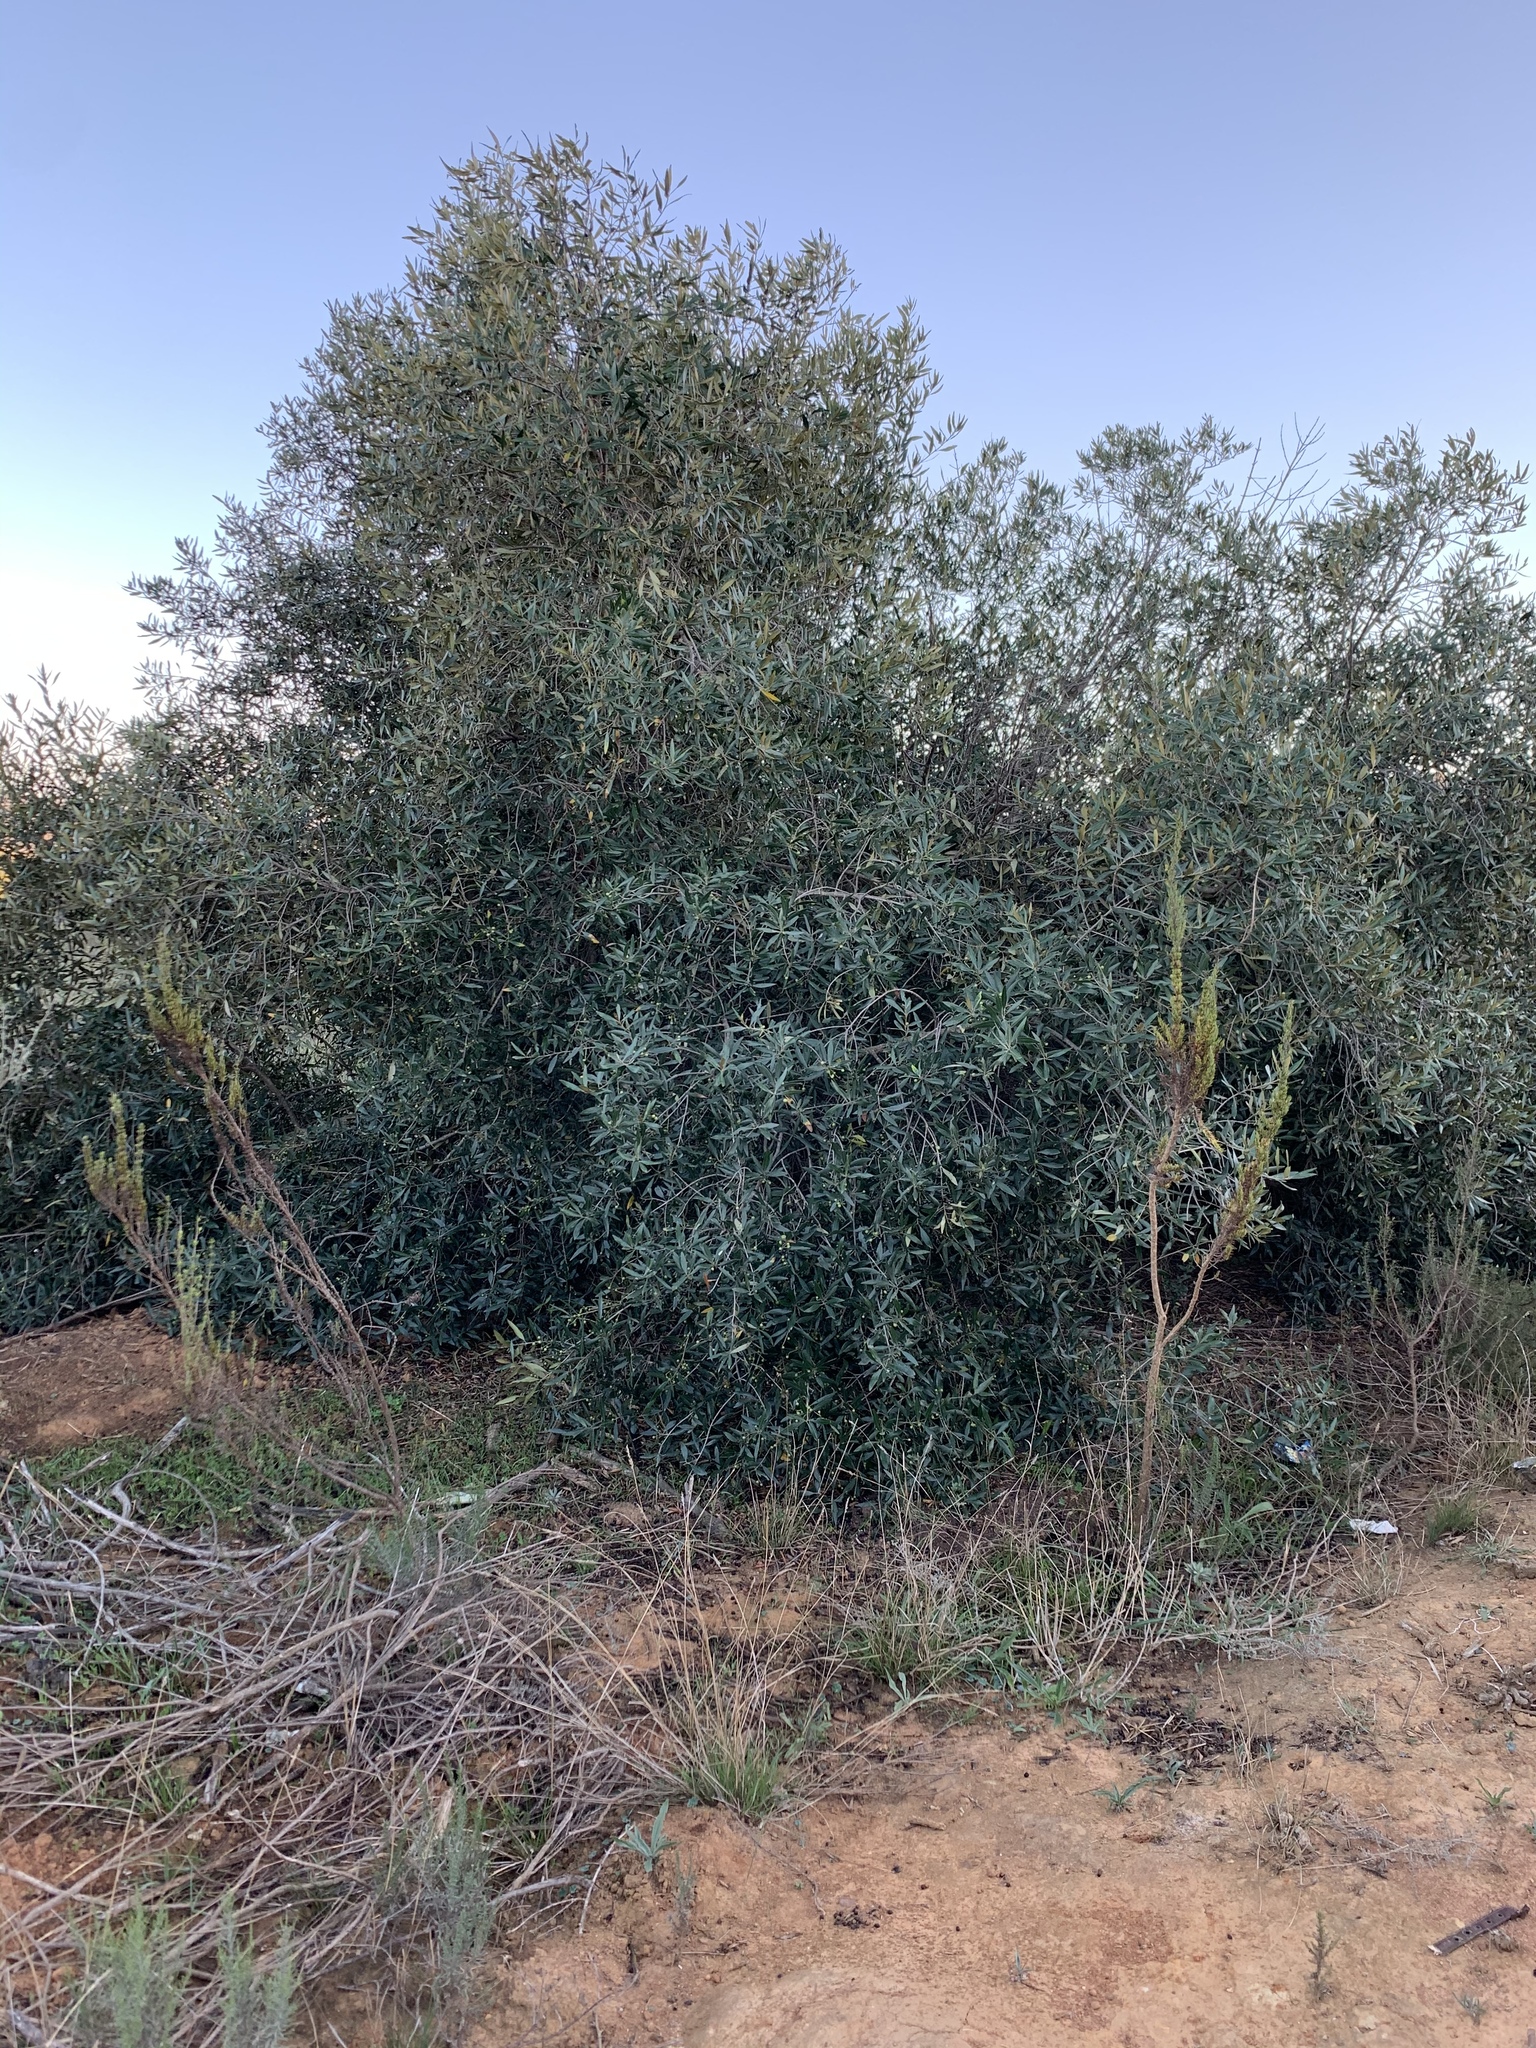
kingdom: Plantae
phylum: Tracheophyta
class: Magnoliopsida
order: Lamiales
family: Oleaceae
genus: Olea
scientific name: Olea europaea
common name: Olive
